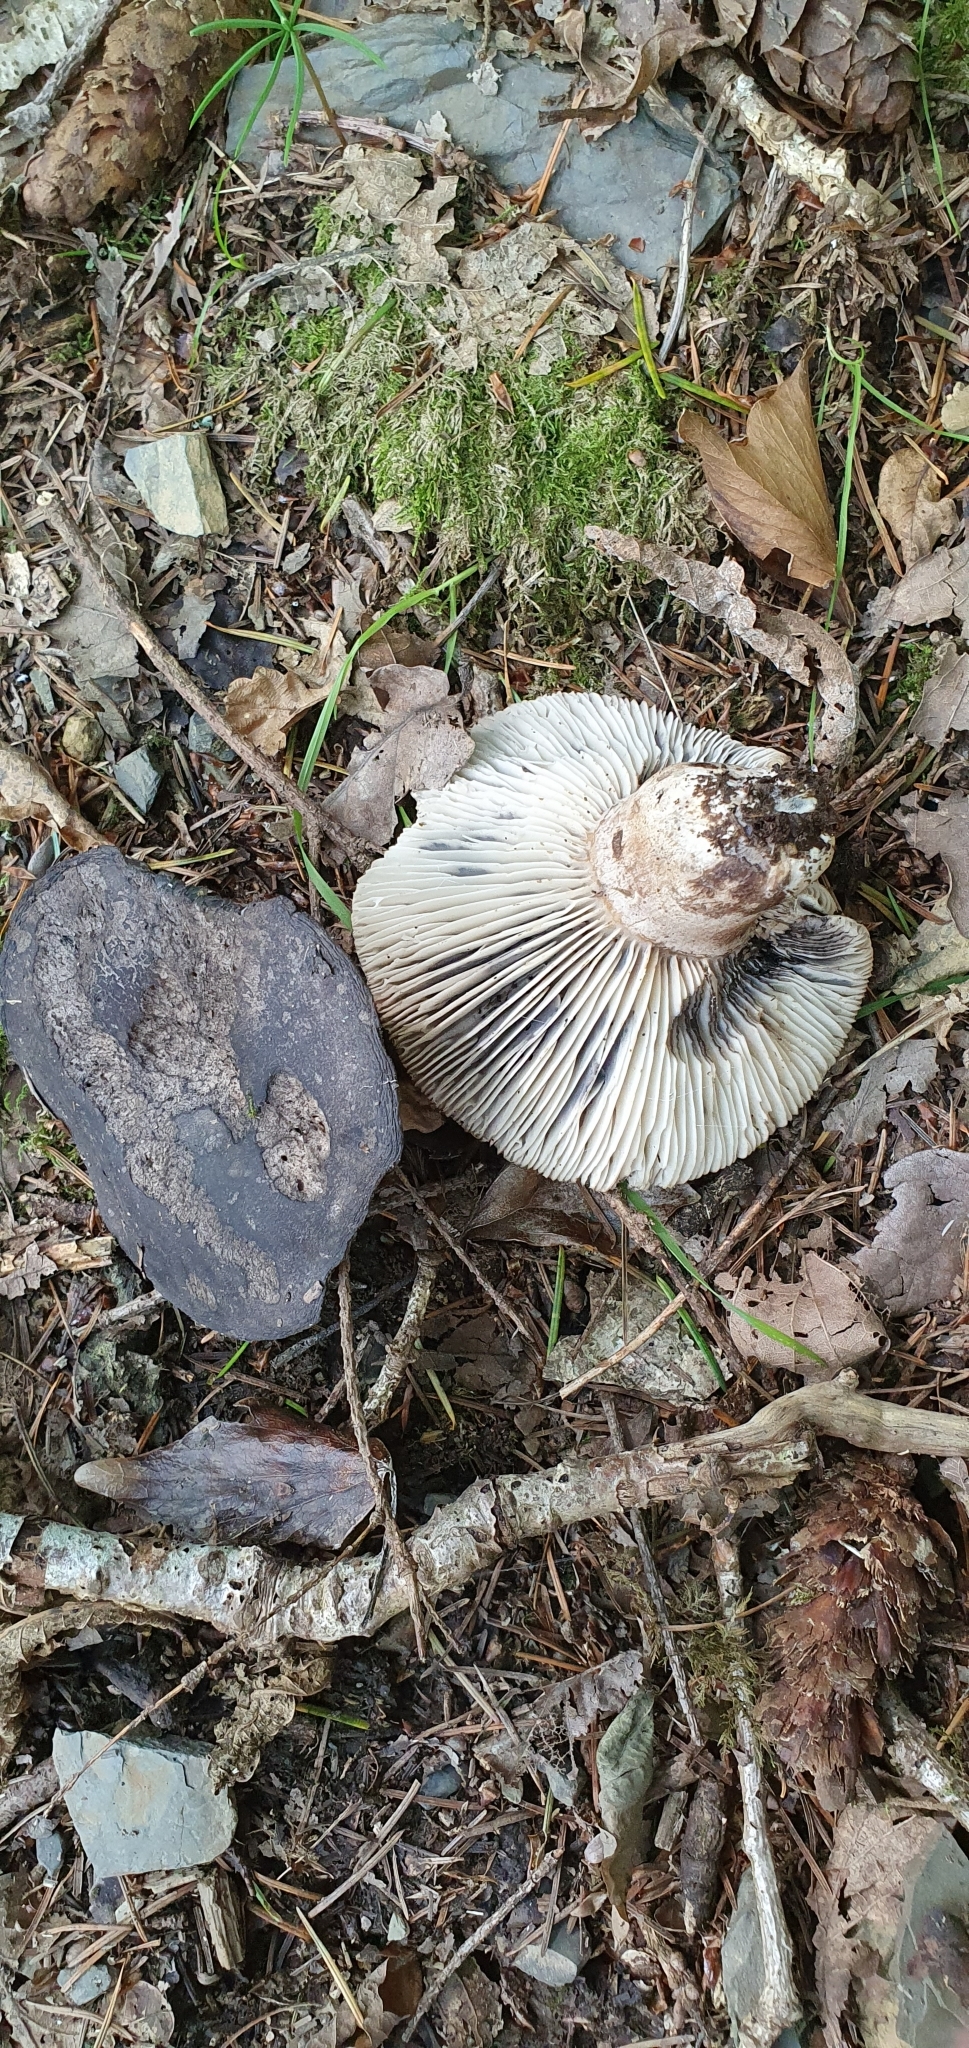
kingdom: Fungi
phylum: Basidiomycota
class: Agaricomycetes
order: Russulales
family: Russulaceae
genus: Russula
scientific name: Russula adusta
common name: Winecork brittlegill
